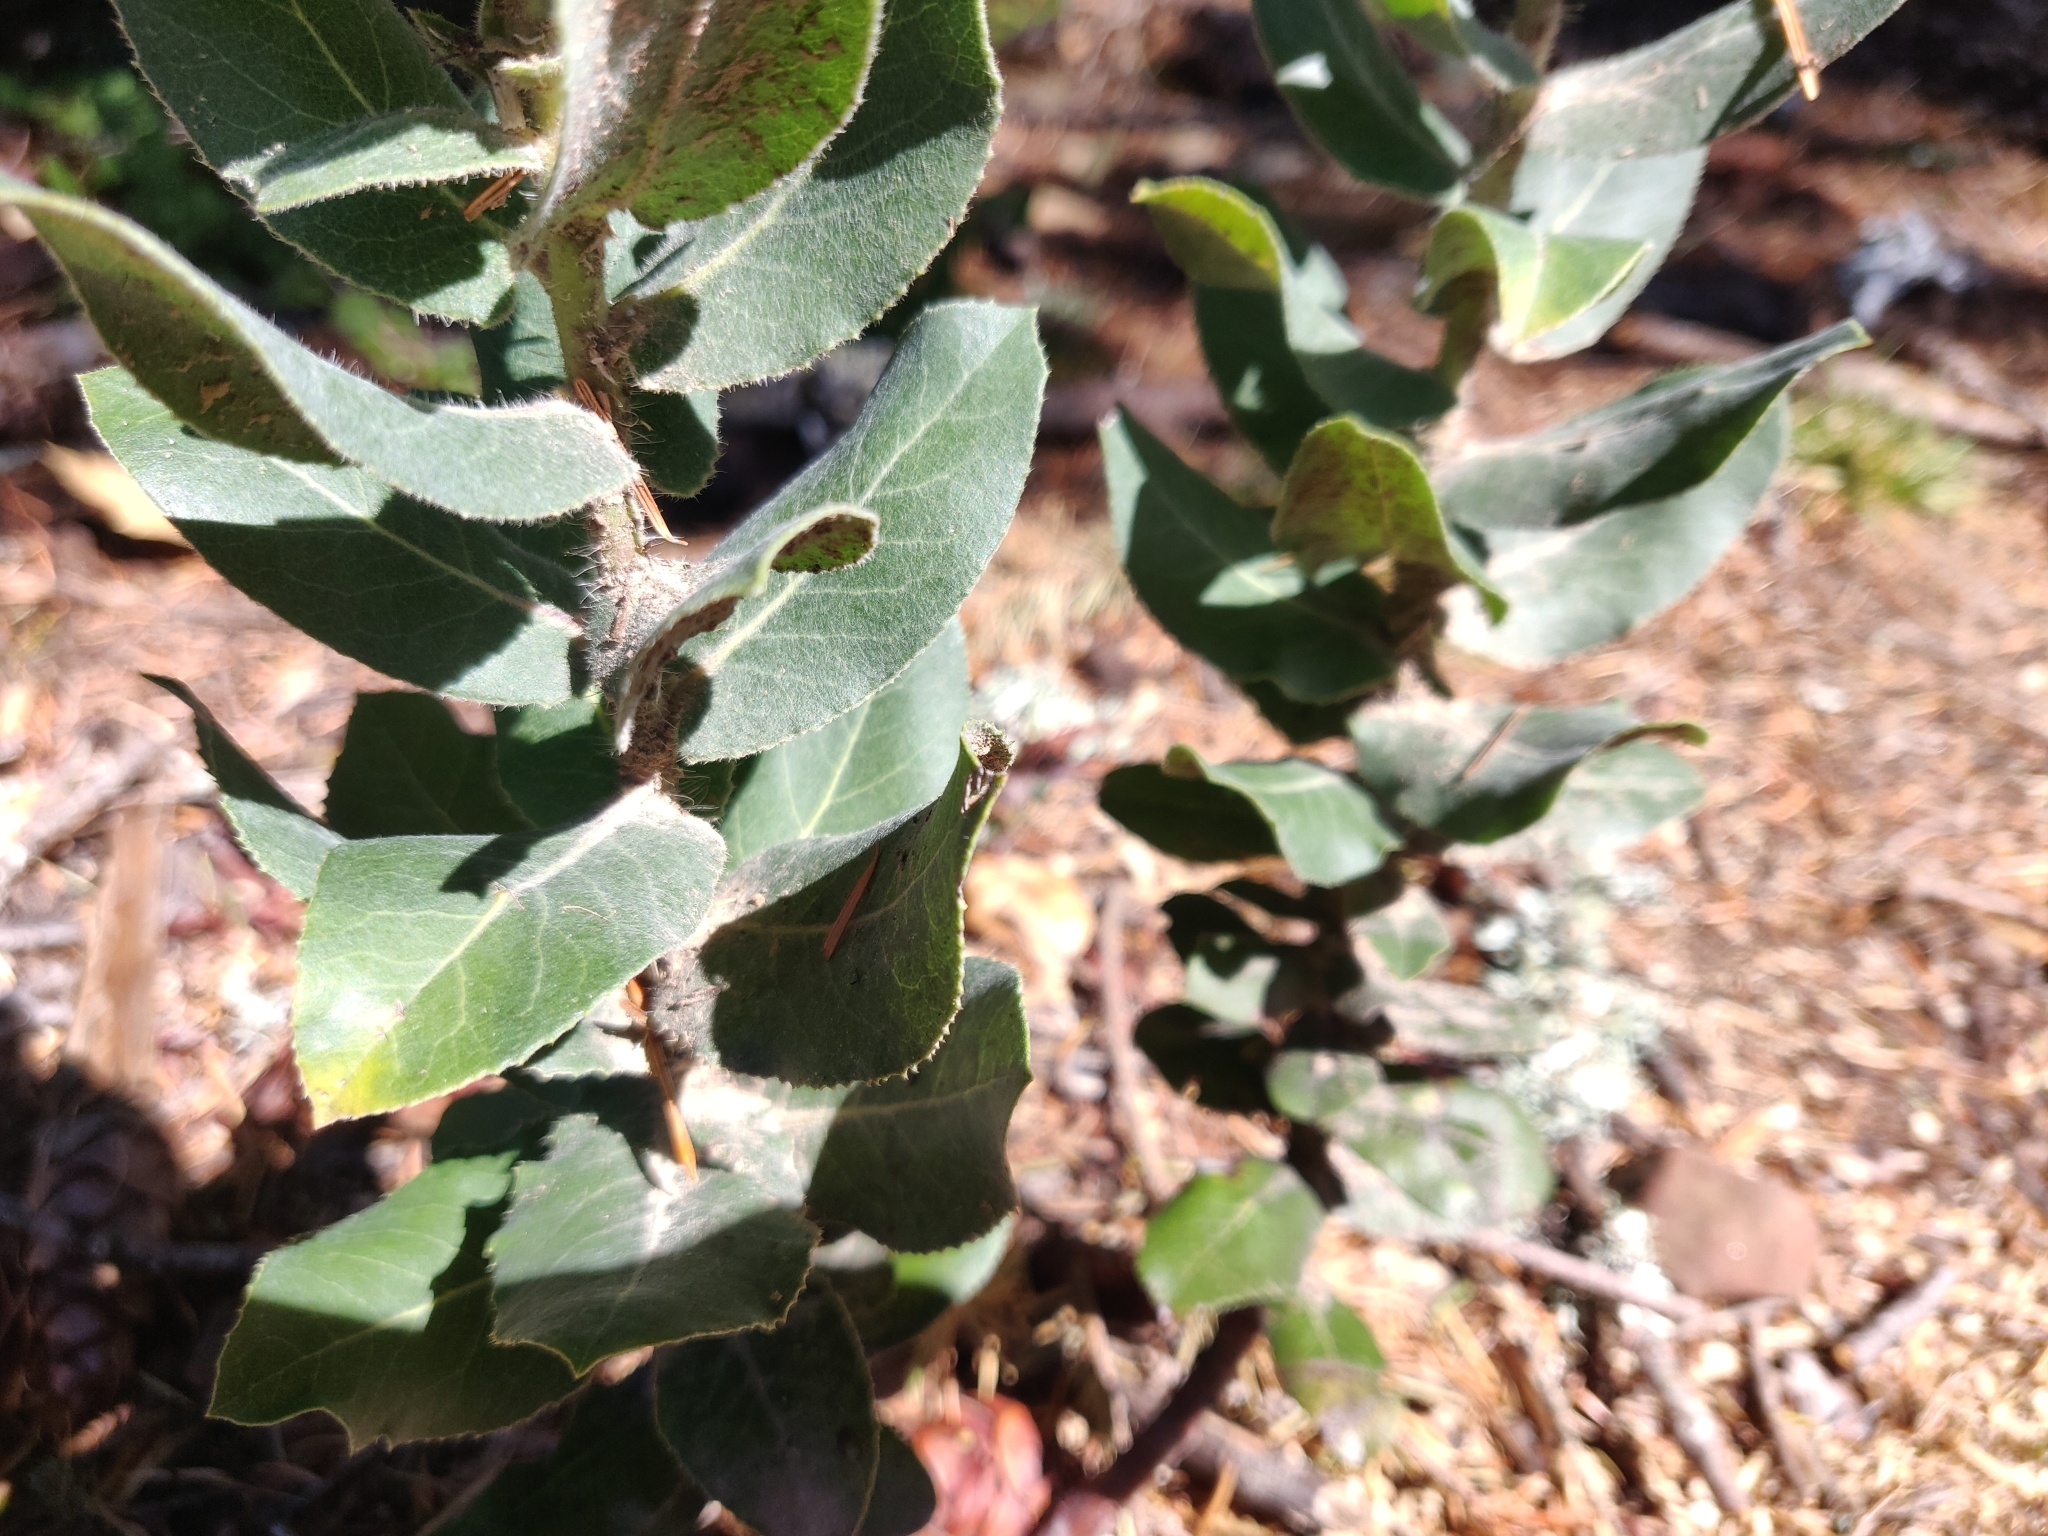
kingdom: Plantae
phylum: Tracheophyta
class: Magnoliopsida
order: Ericales
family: Ericaceae
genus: Arctostaphylos
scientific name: Arctostaphylos regismontana
